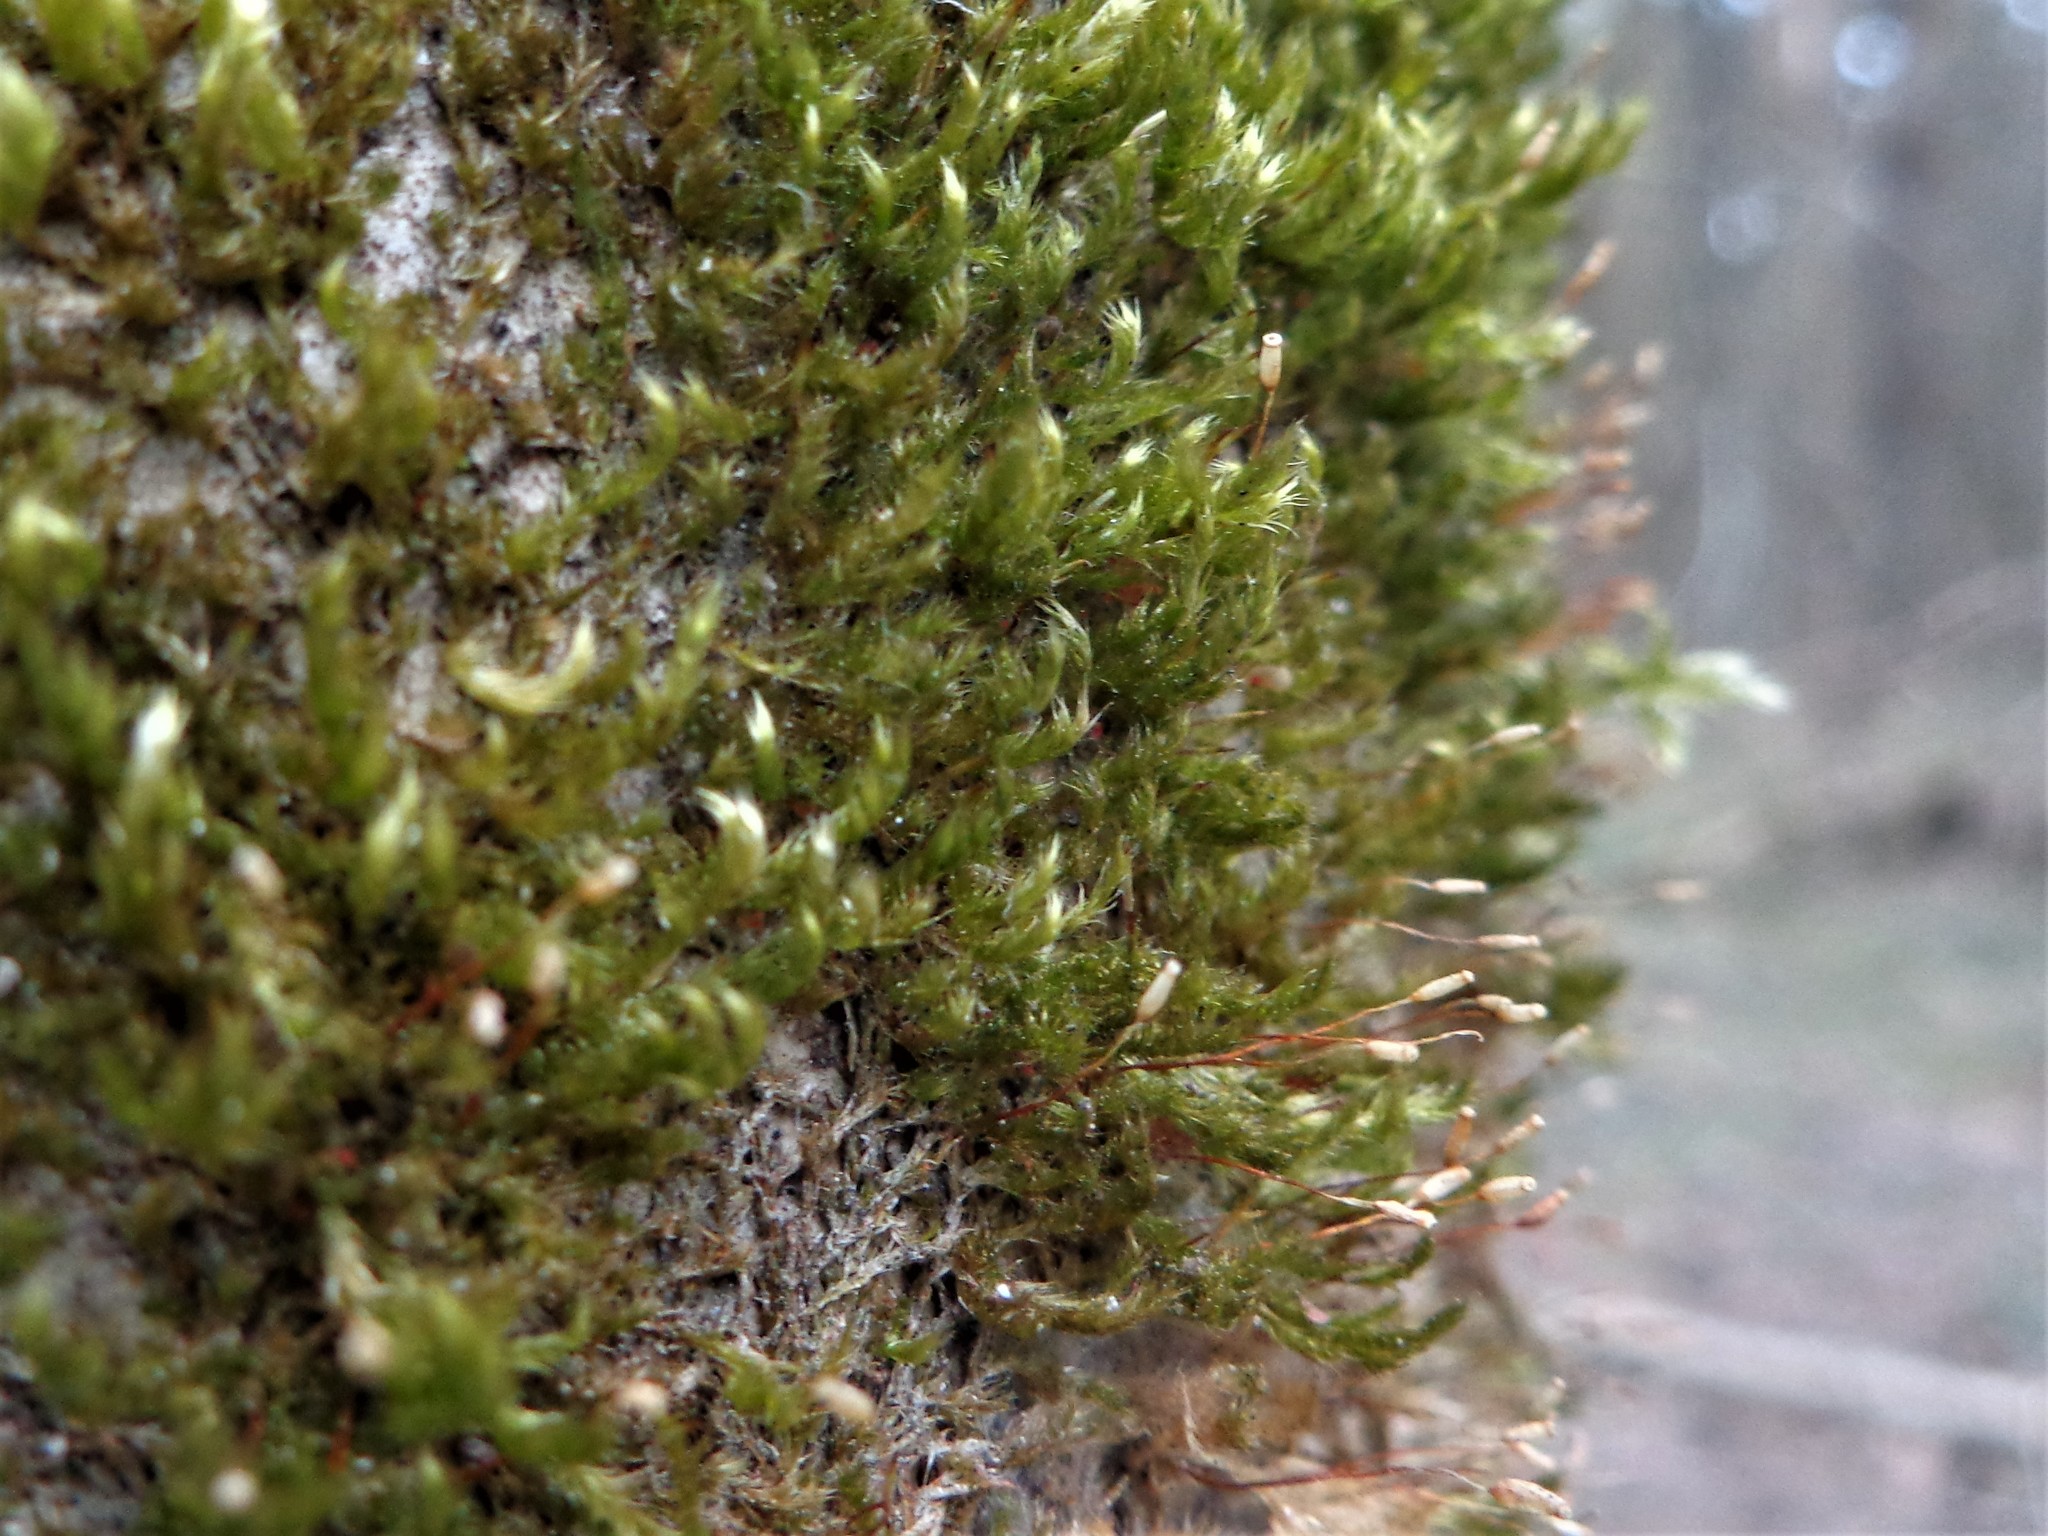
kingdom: Plantae
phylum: Bryophyta
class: Bryopsida
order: Hypnales
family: Pylaisiaceae
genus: Pylaisia
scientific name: Pylaisia polyantha
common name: Many-flowered leskea
